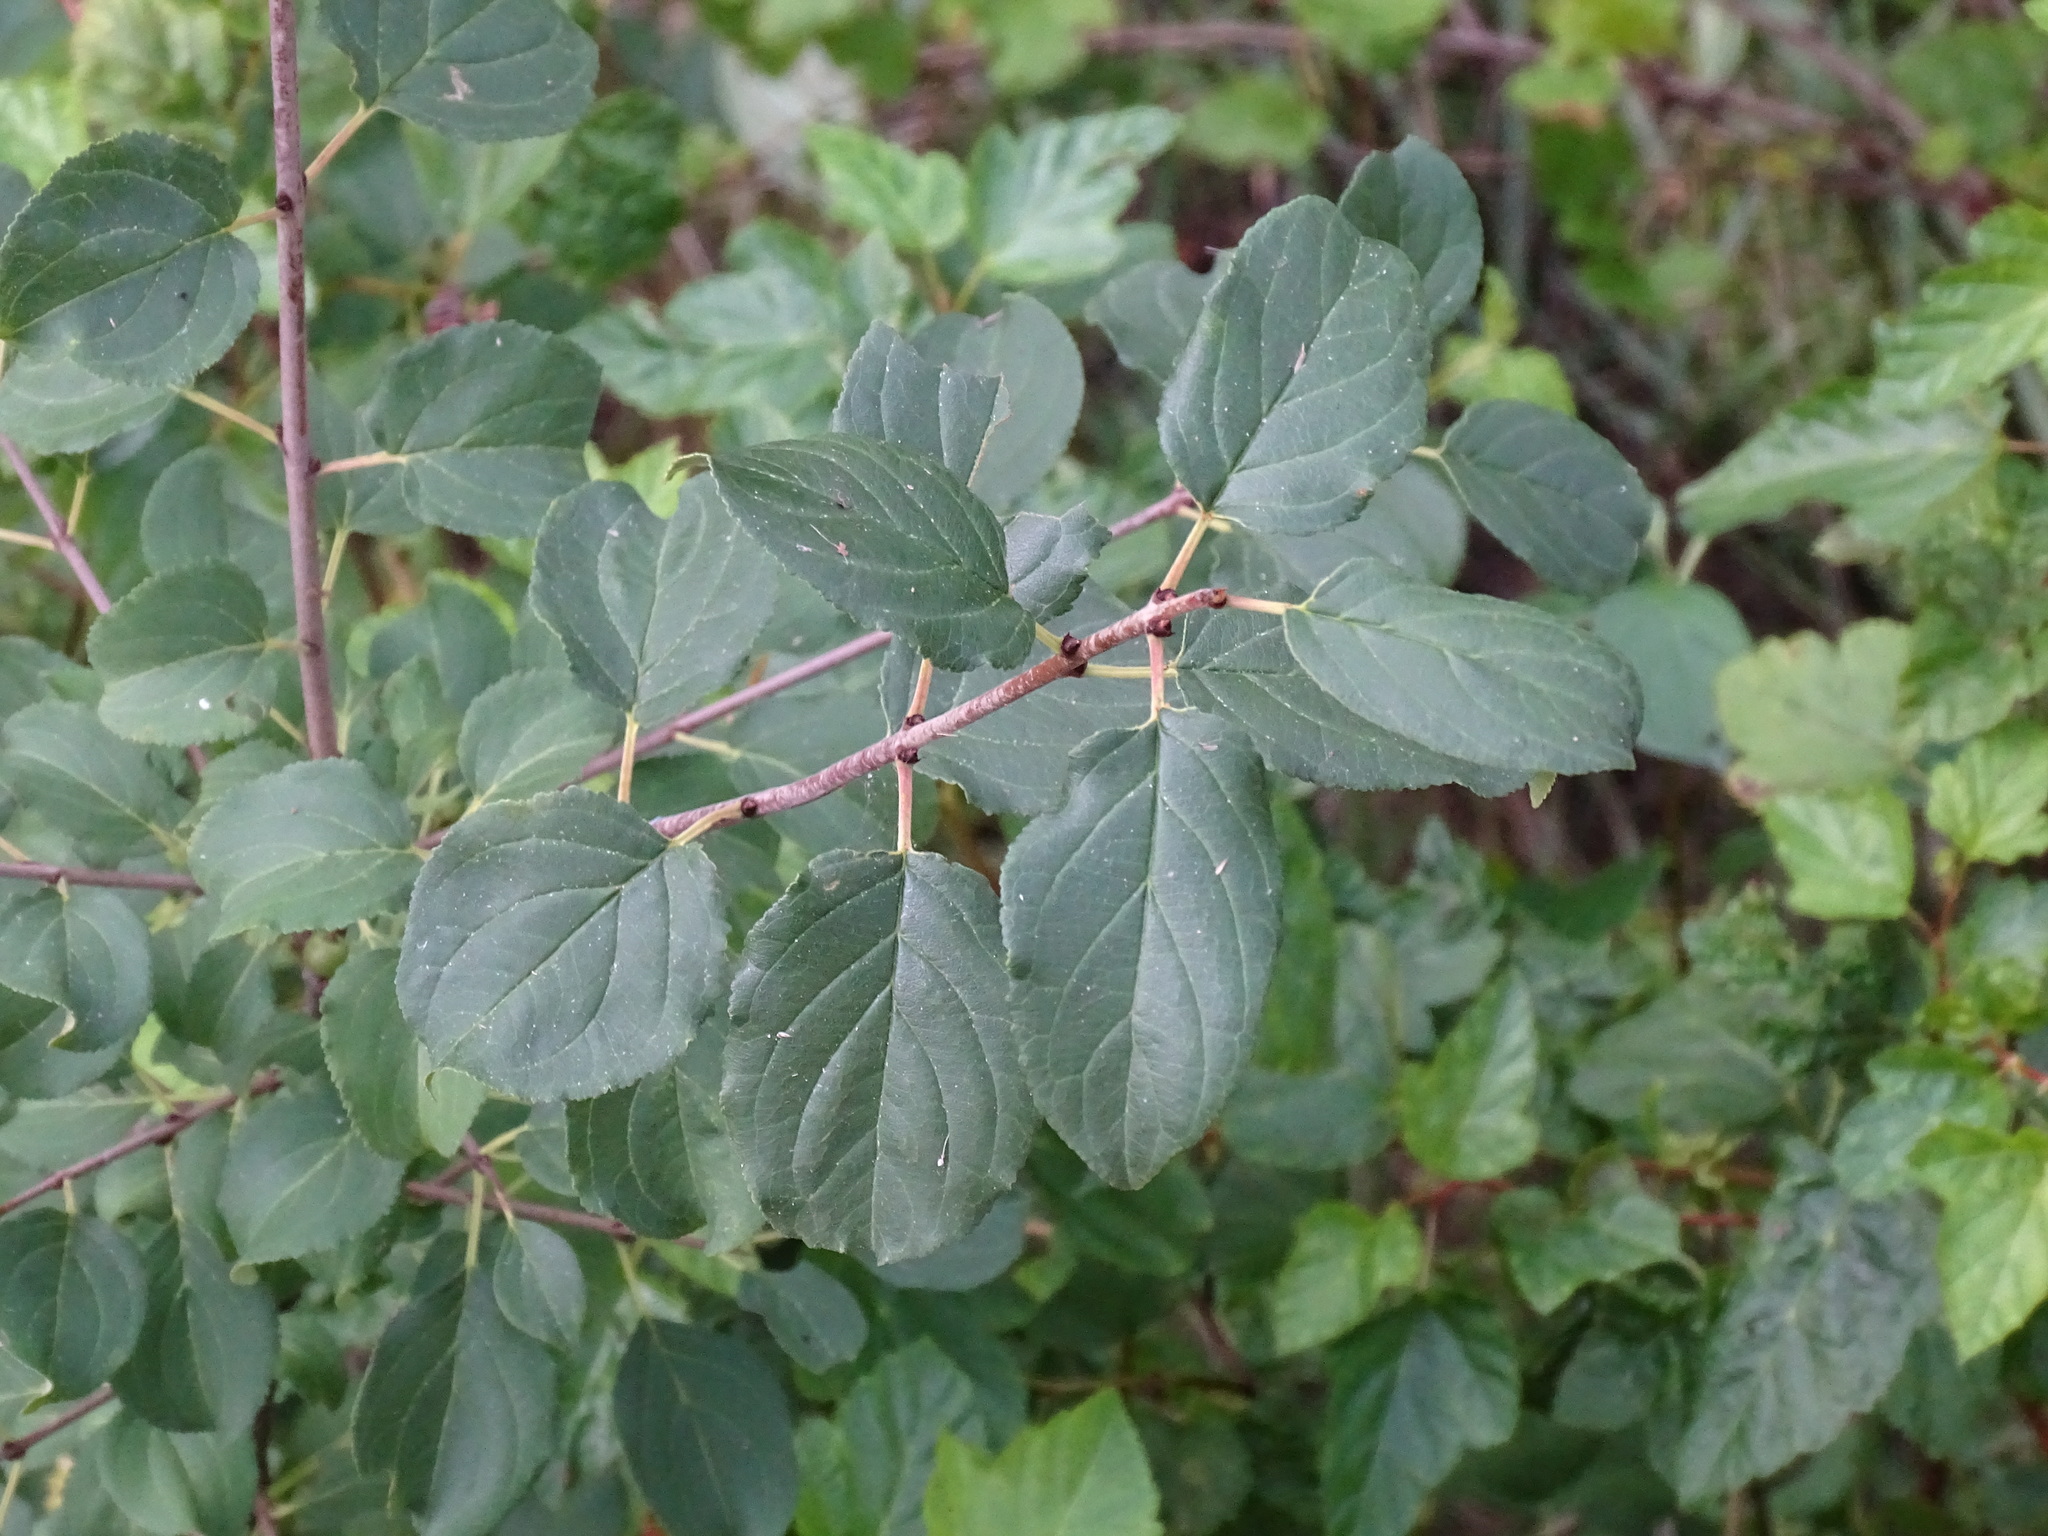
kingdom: Plantae
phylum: Tracheophyta
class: Magnoliopsida
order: Rosales
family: Rhamnaceae
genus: Rhamnus
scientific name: Rhamnus cathartica
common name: Common buckthorn
